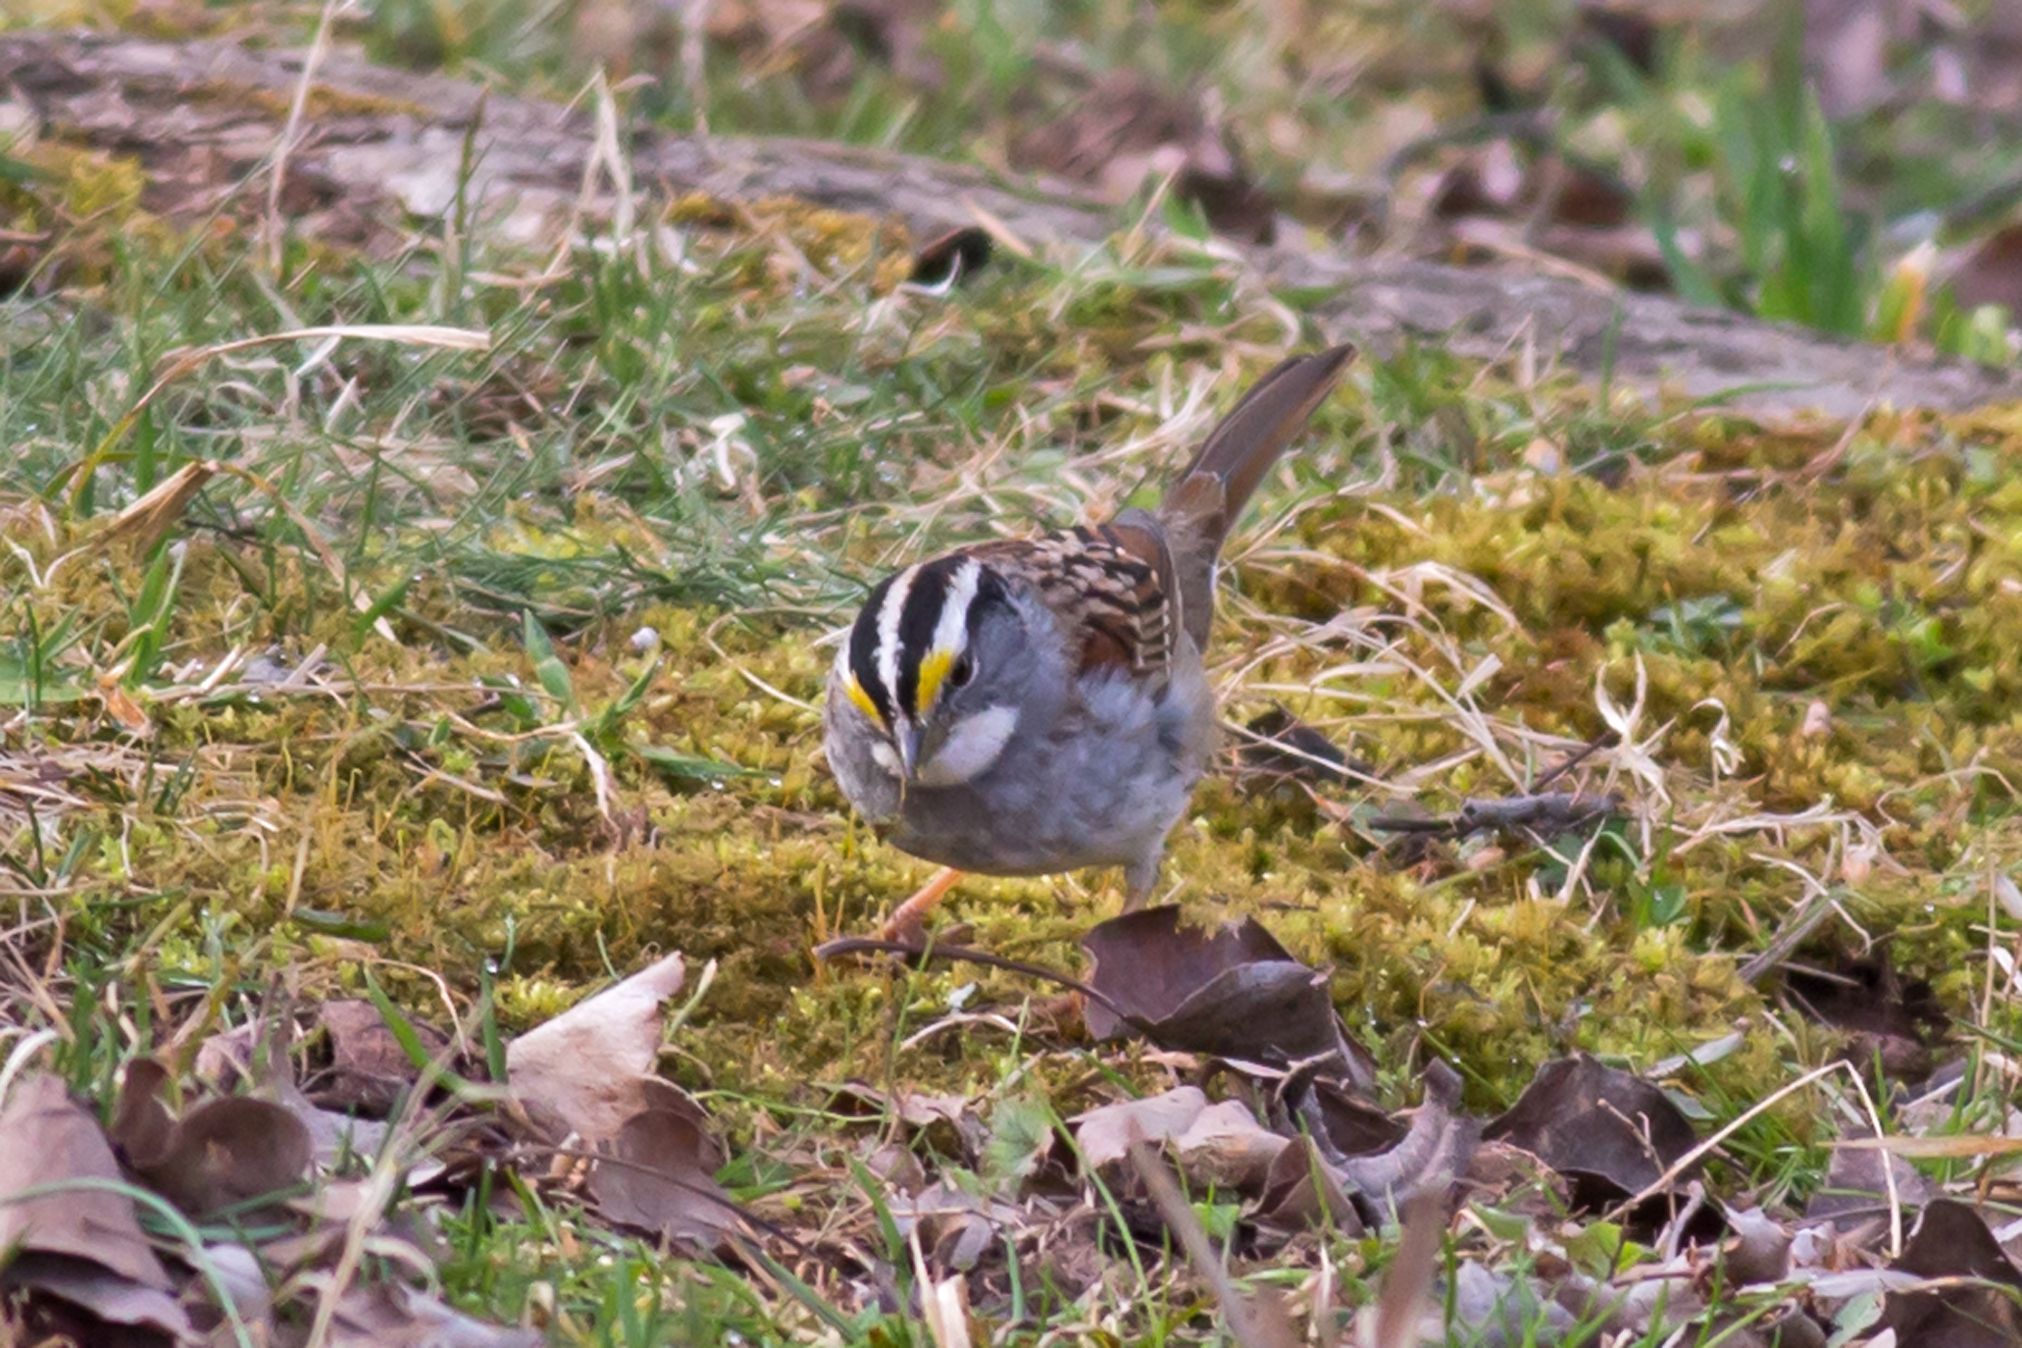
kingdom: Animalia
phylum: Chordata
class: Aves
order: Passeriformes
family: Passerellidae
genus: Zonotrichia
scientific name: Zonotrichia albicollis
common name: White-throated sparrow
